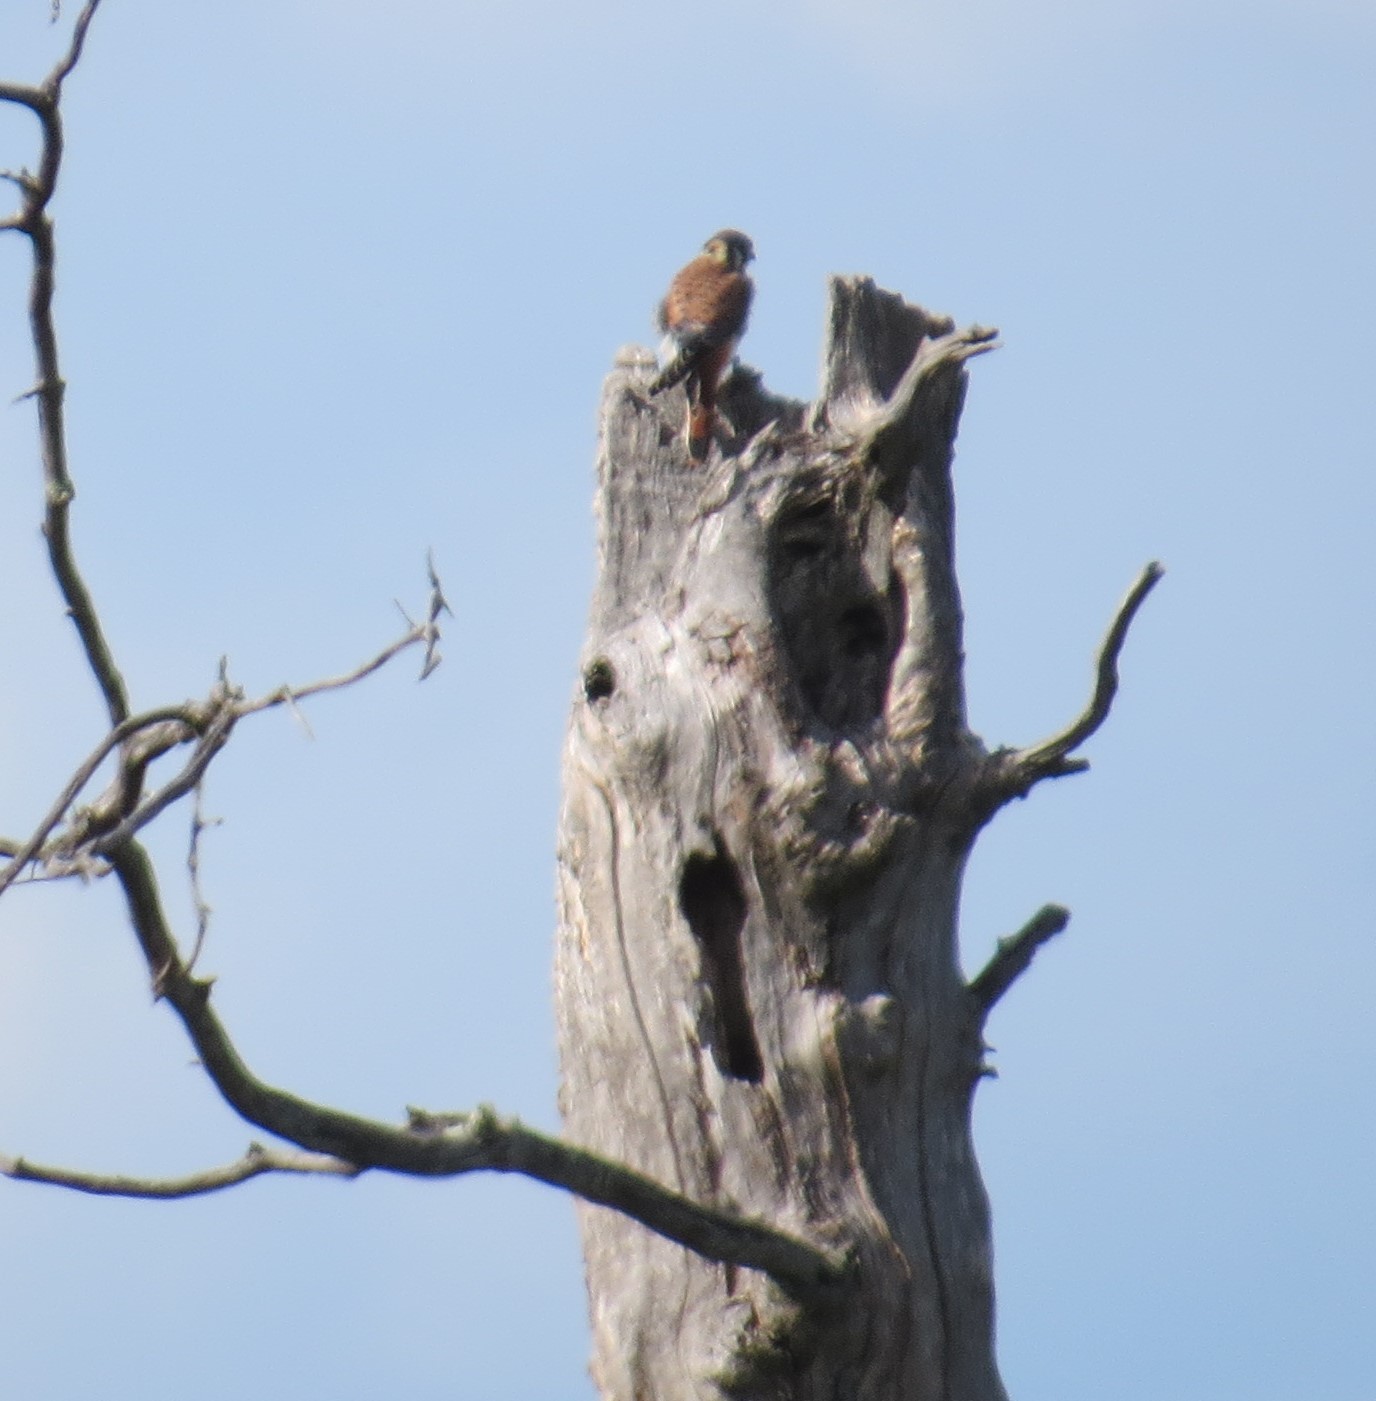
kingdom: Animalia
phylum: Chordata
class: Aves
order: Falconiformes
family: Falconidae
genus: Falco
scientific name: Falco sparverius
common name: American kestrel
